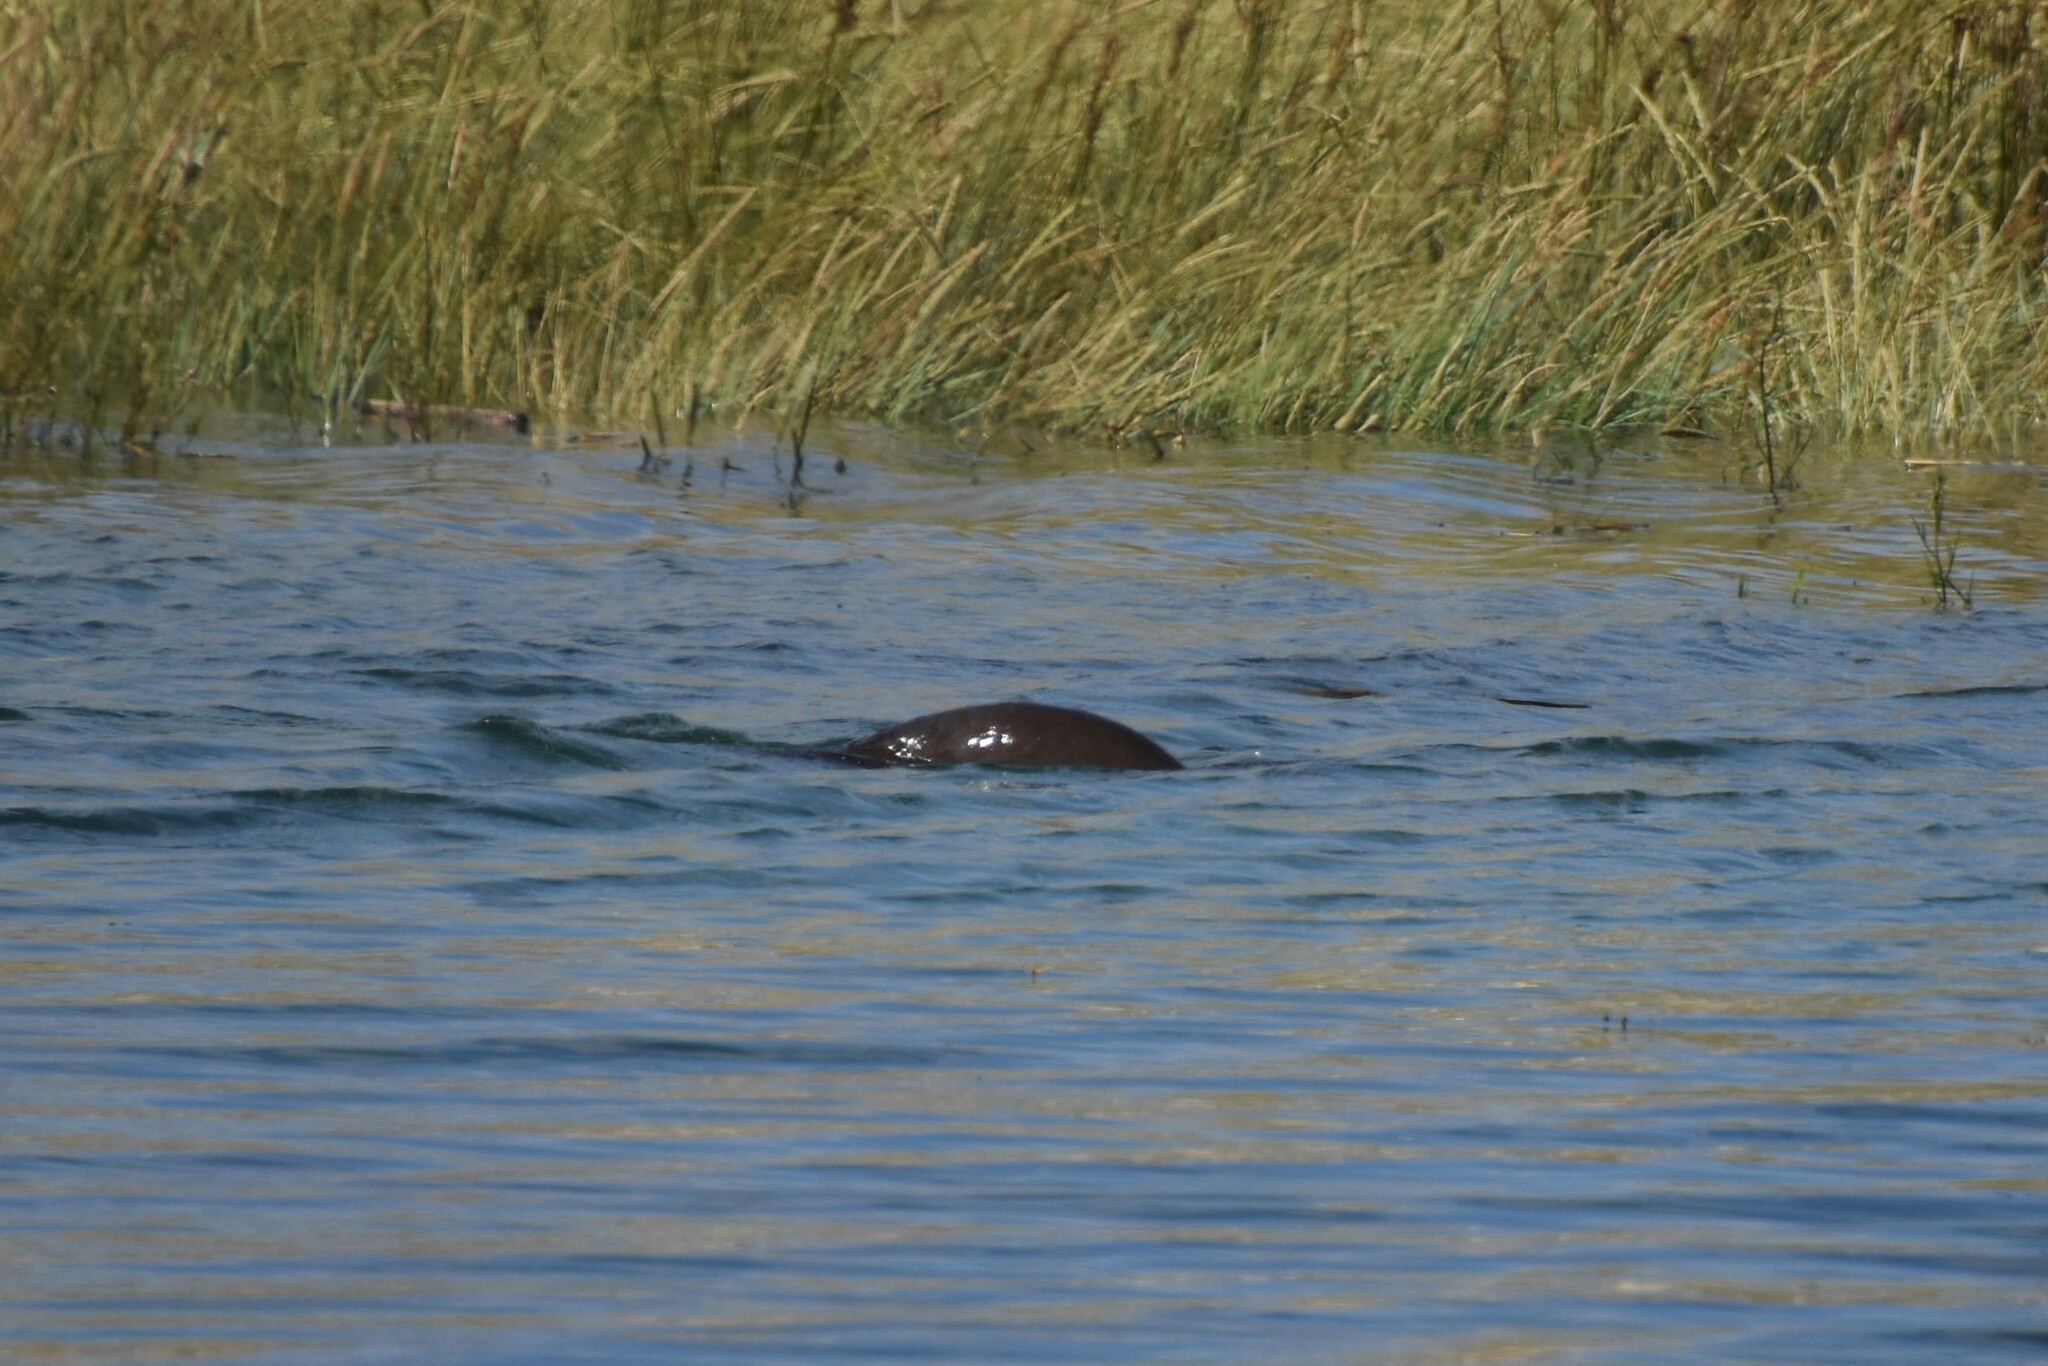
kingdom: Animalia
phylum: Chordata
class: Mammalia
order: Carnivora
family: Mustelidae
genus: Lutra
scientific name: Lutra lutra
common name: European otter
